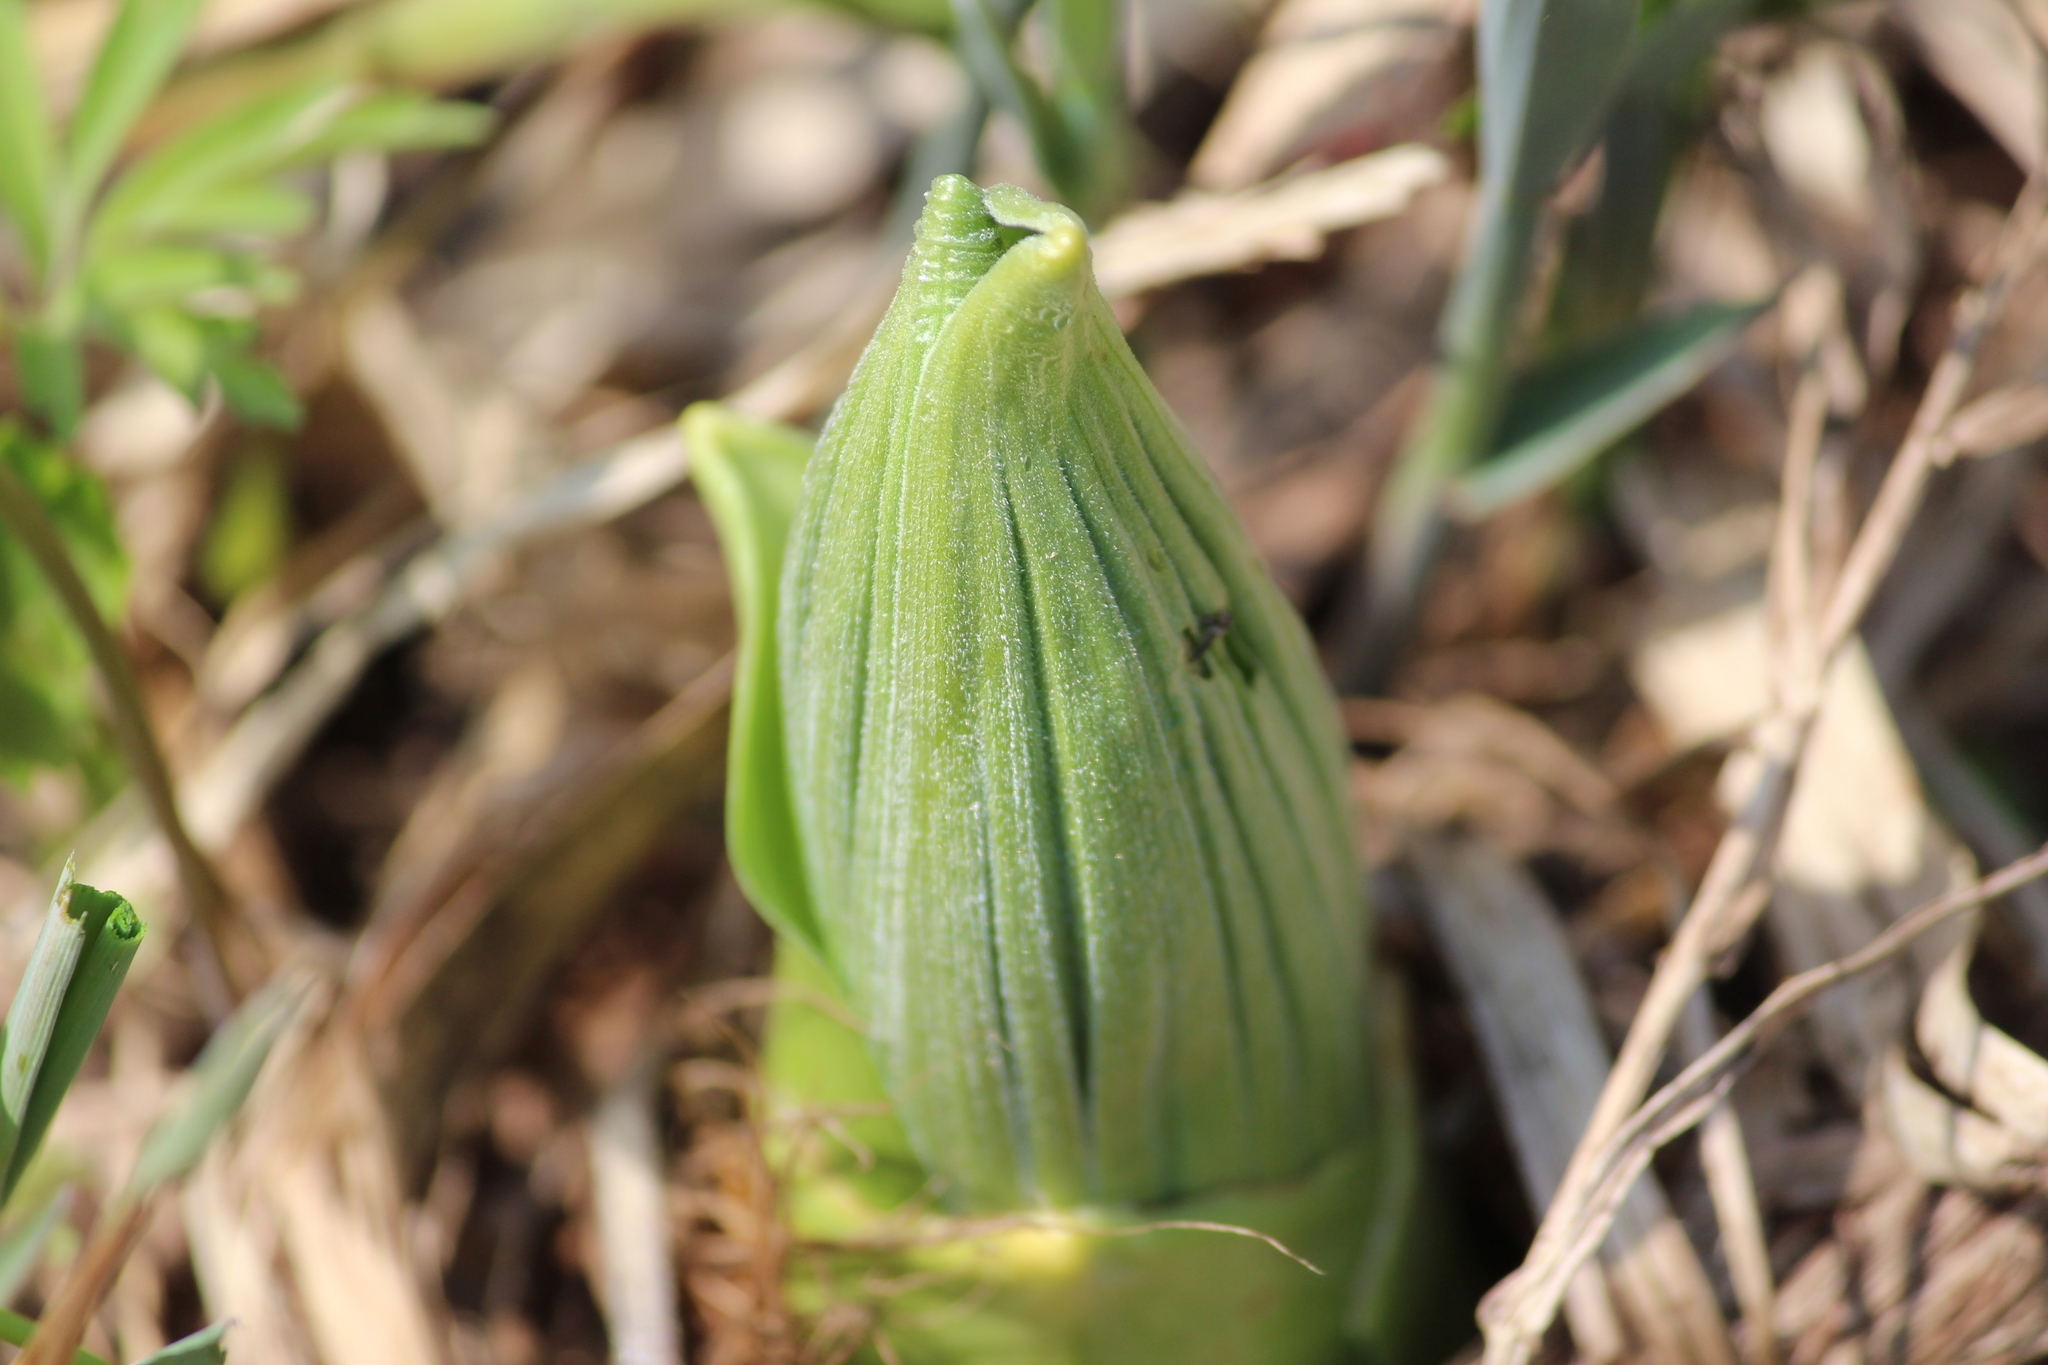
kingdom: Plantae
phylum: Tracheophyta
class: Liliopsida
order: Liliales
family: Melanthiaceae
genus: Veratrum
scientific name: Veratrum lobelianum
